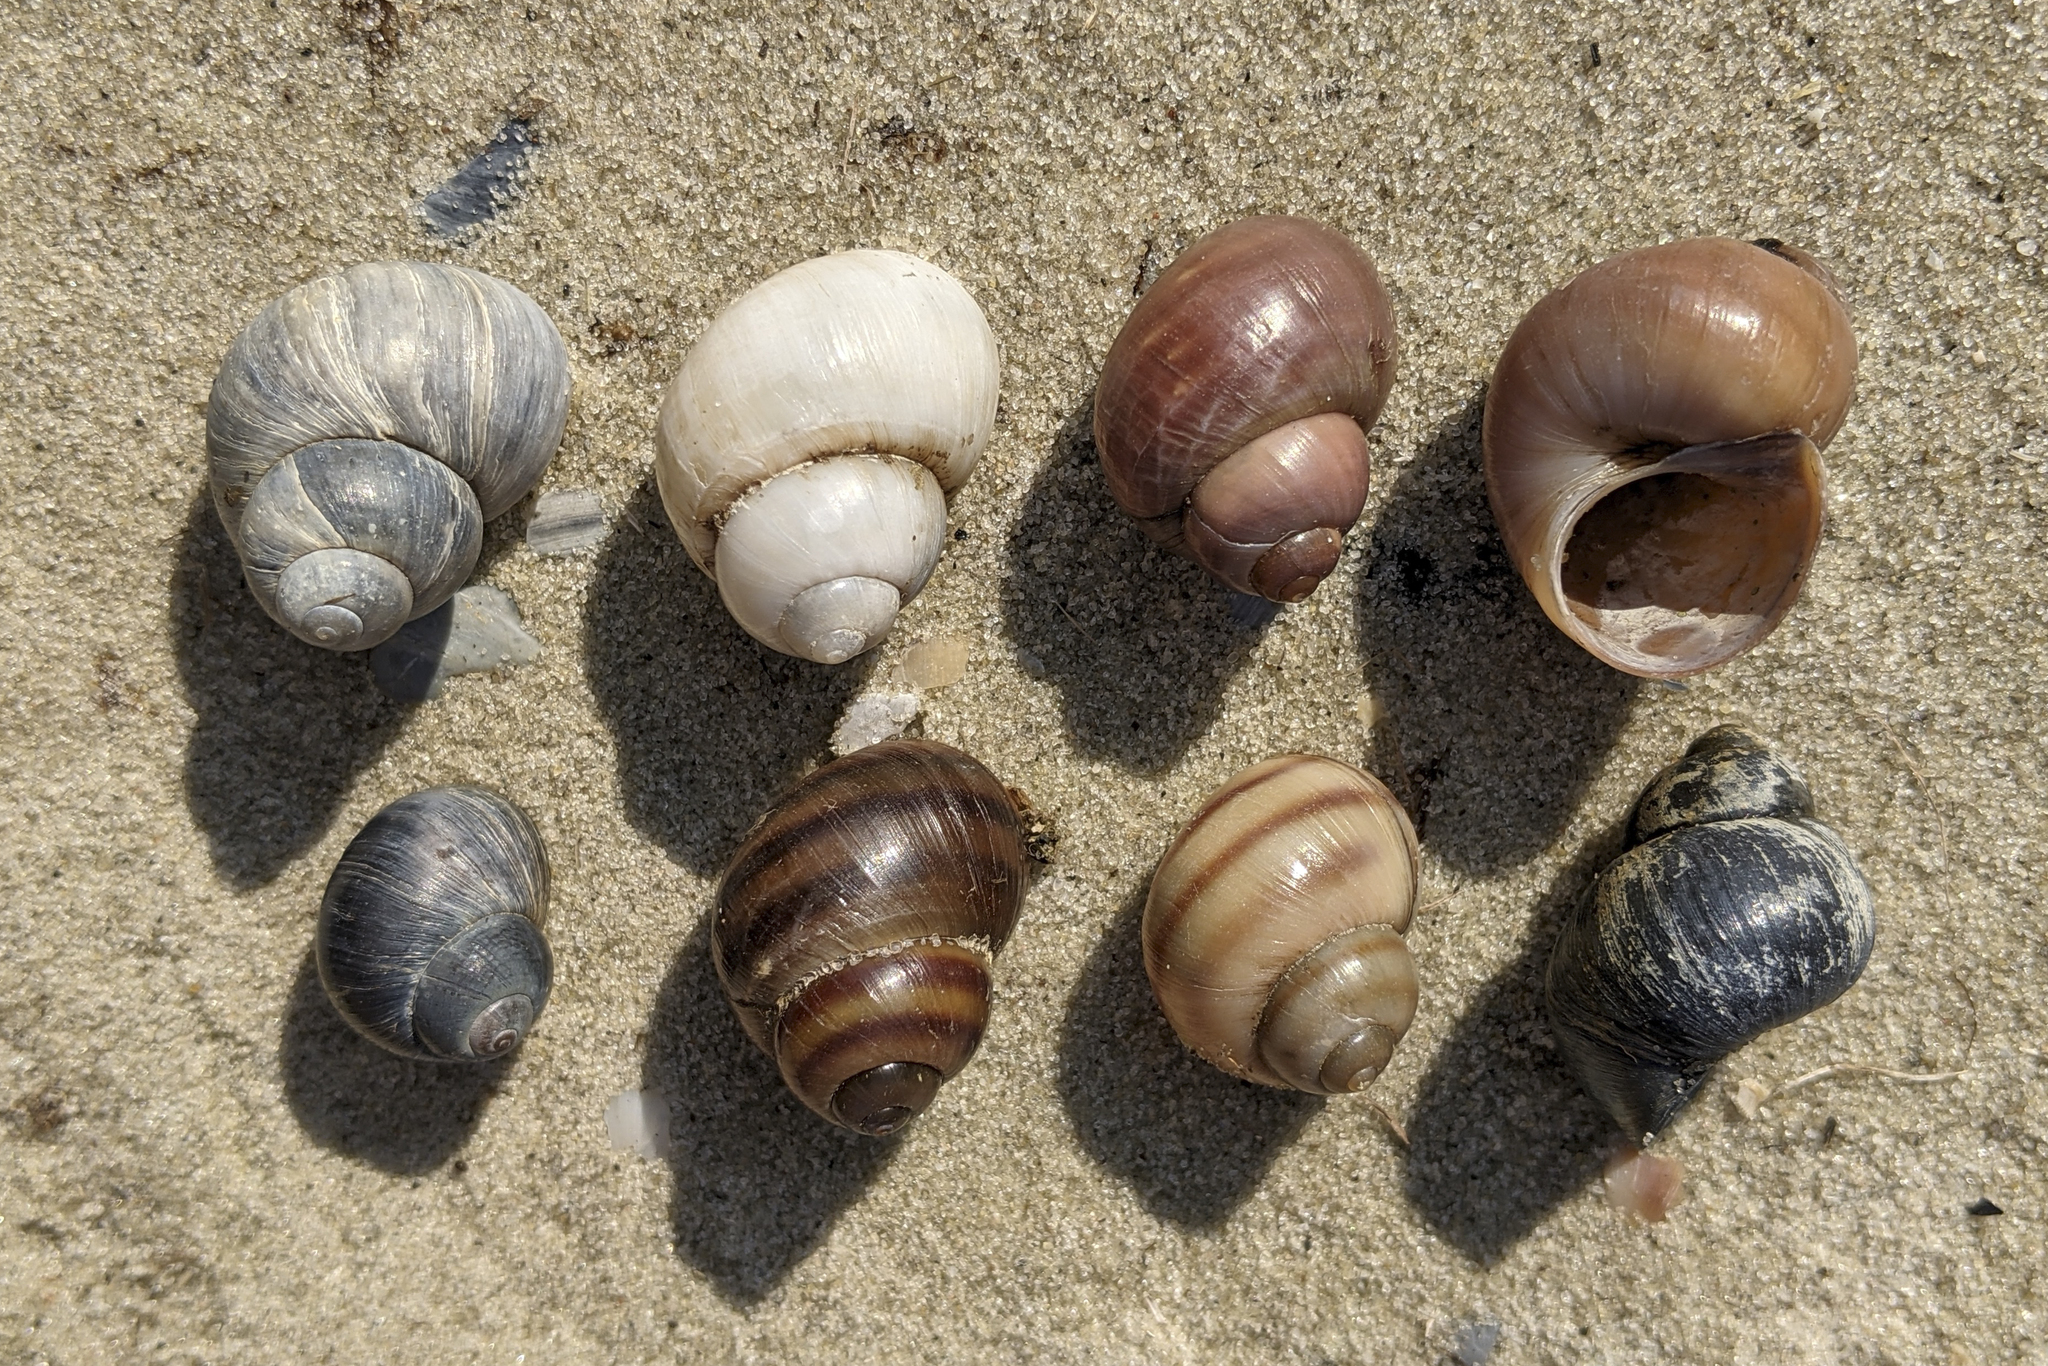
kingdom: Animalia
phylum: Mollusca
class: Gastropoda
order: Architaenioglossa
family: Viviparidae
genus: Viviparus
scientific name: Viviparus viviparus
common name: River snail
